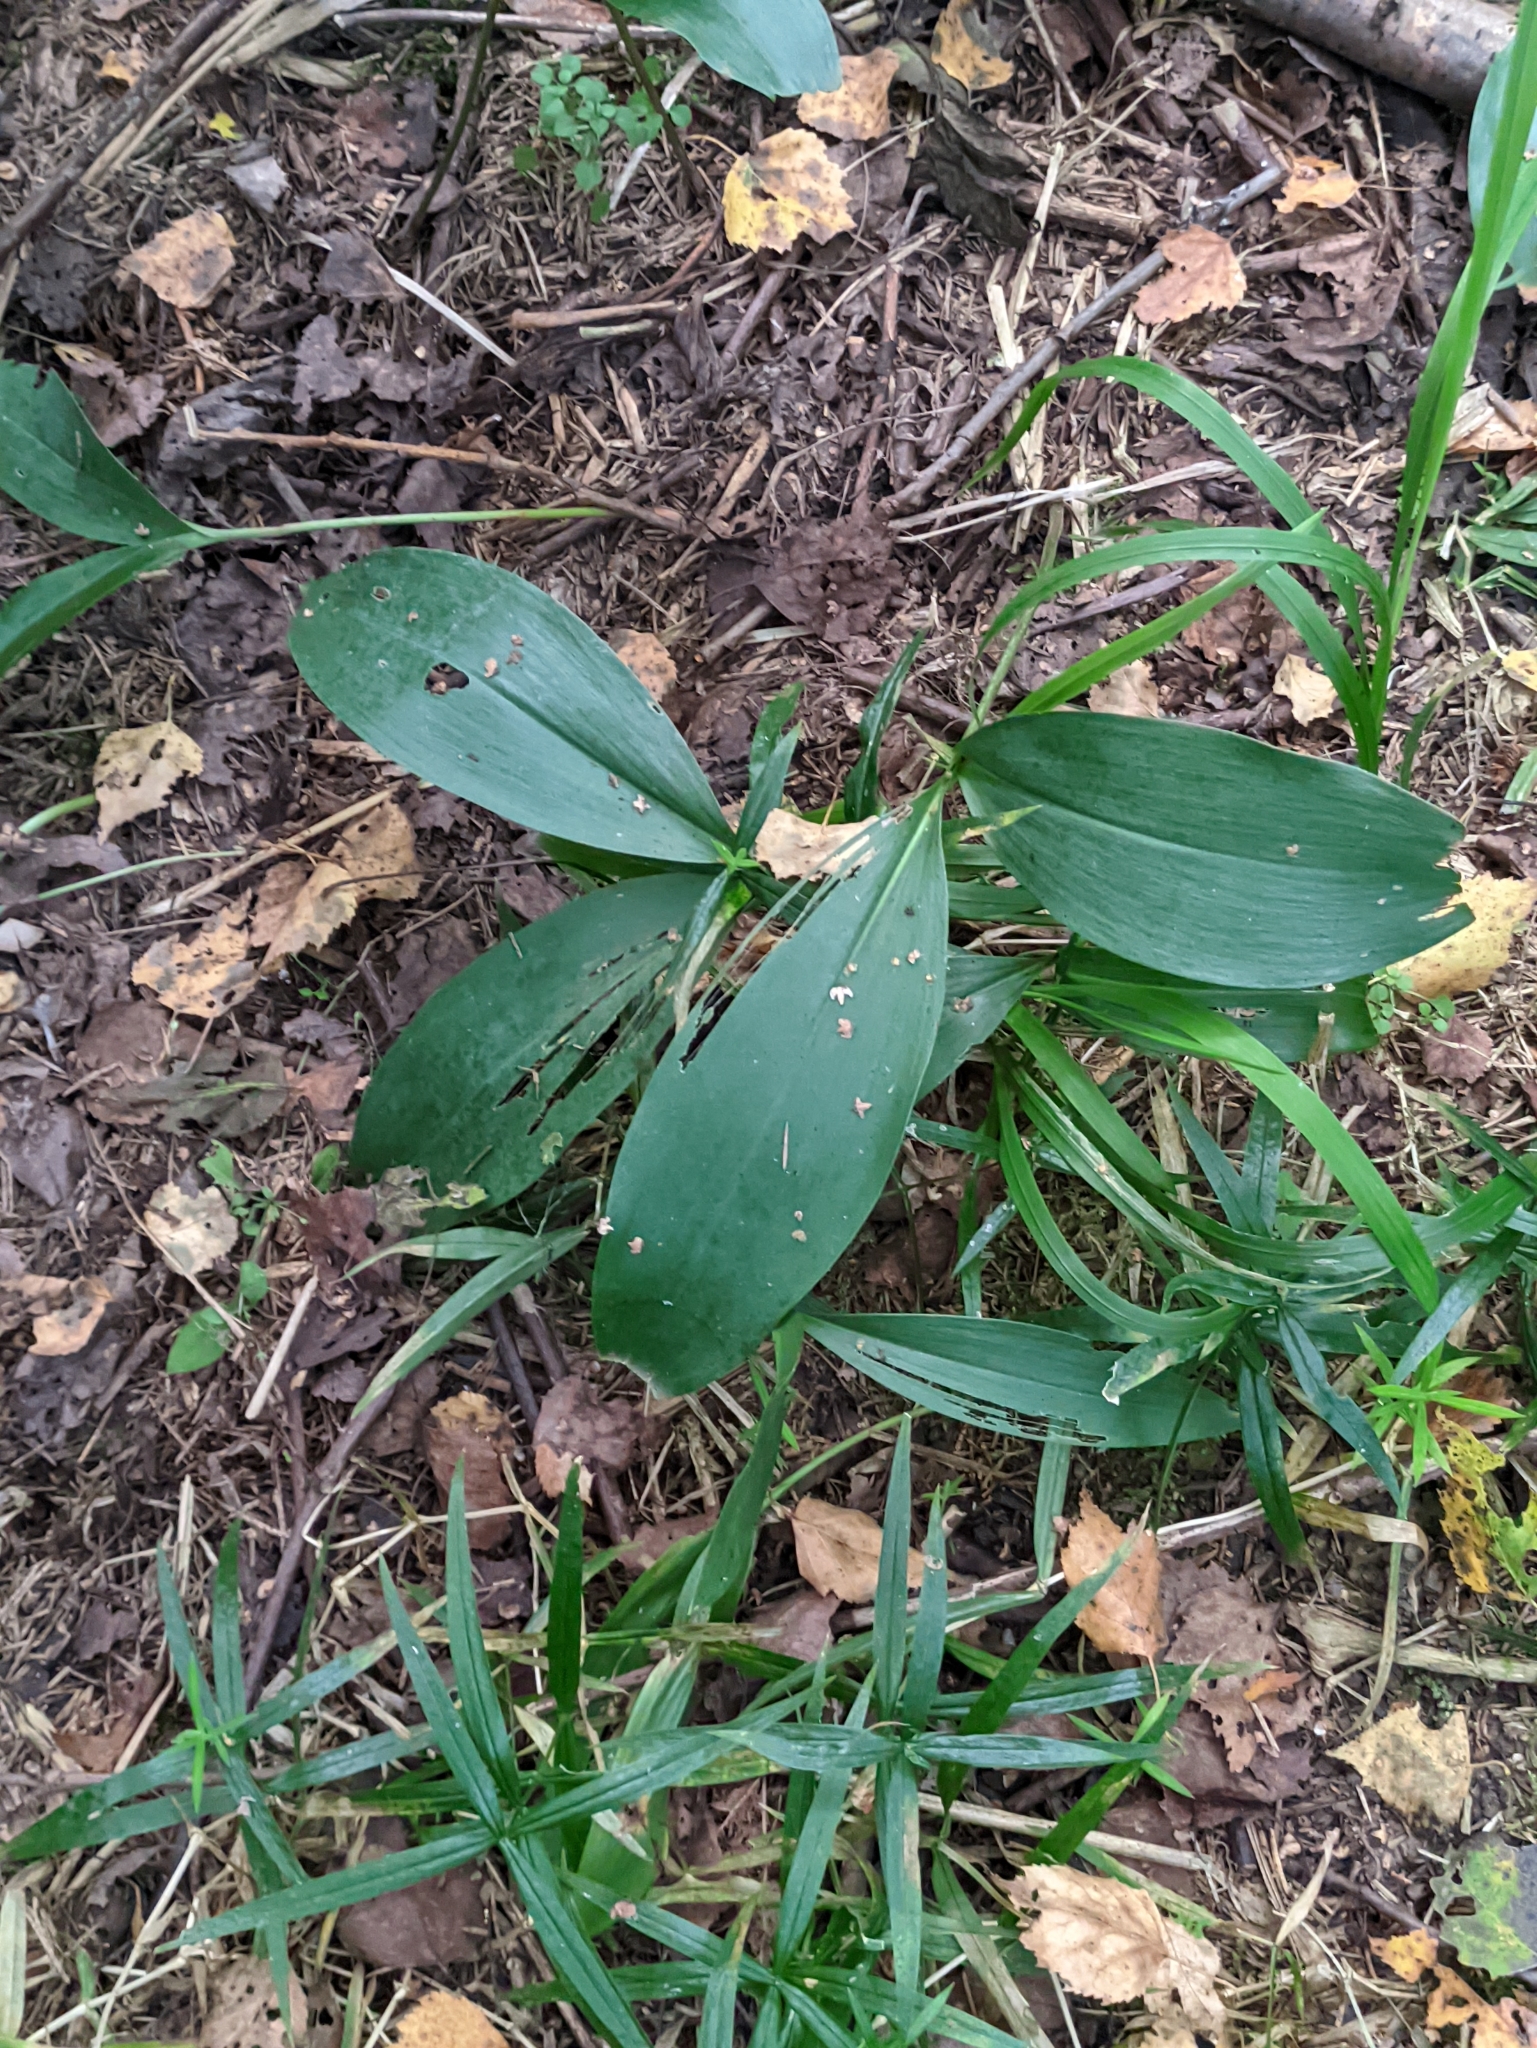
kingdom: Plantae
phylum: Tracheophyta
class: Liliopsida
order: Asparagales
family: Asparagaceae
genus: Convallaria
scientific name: Convallaria majalis
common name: Lily-of-the-valley
